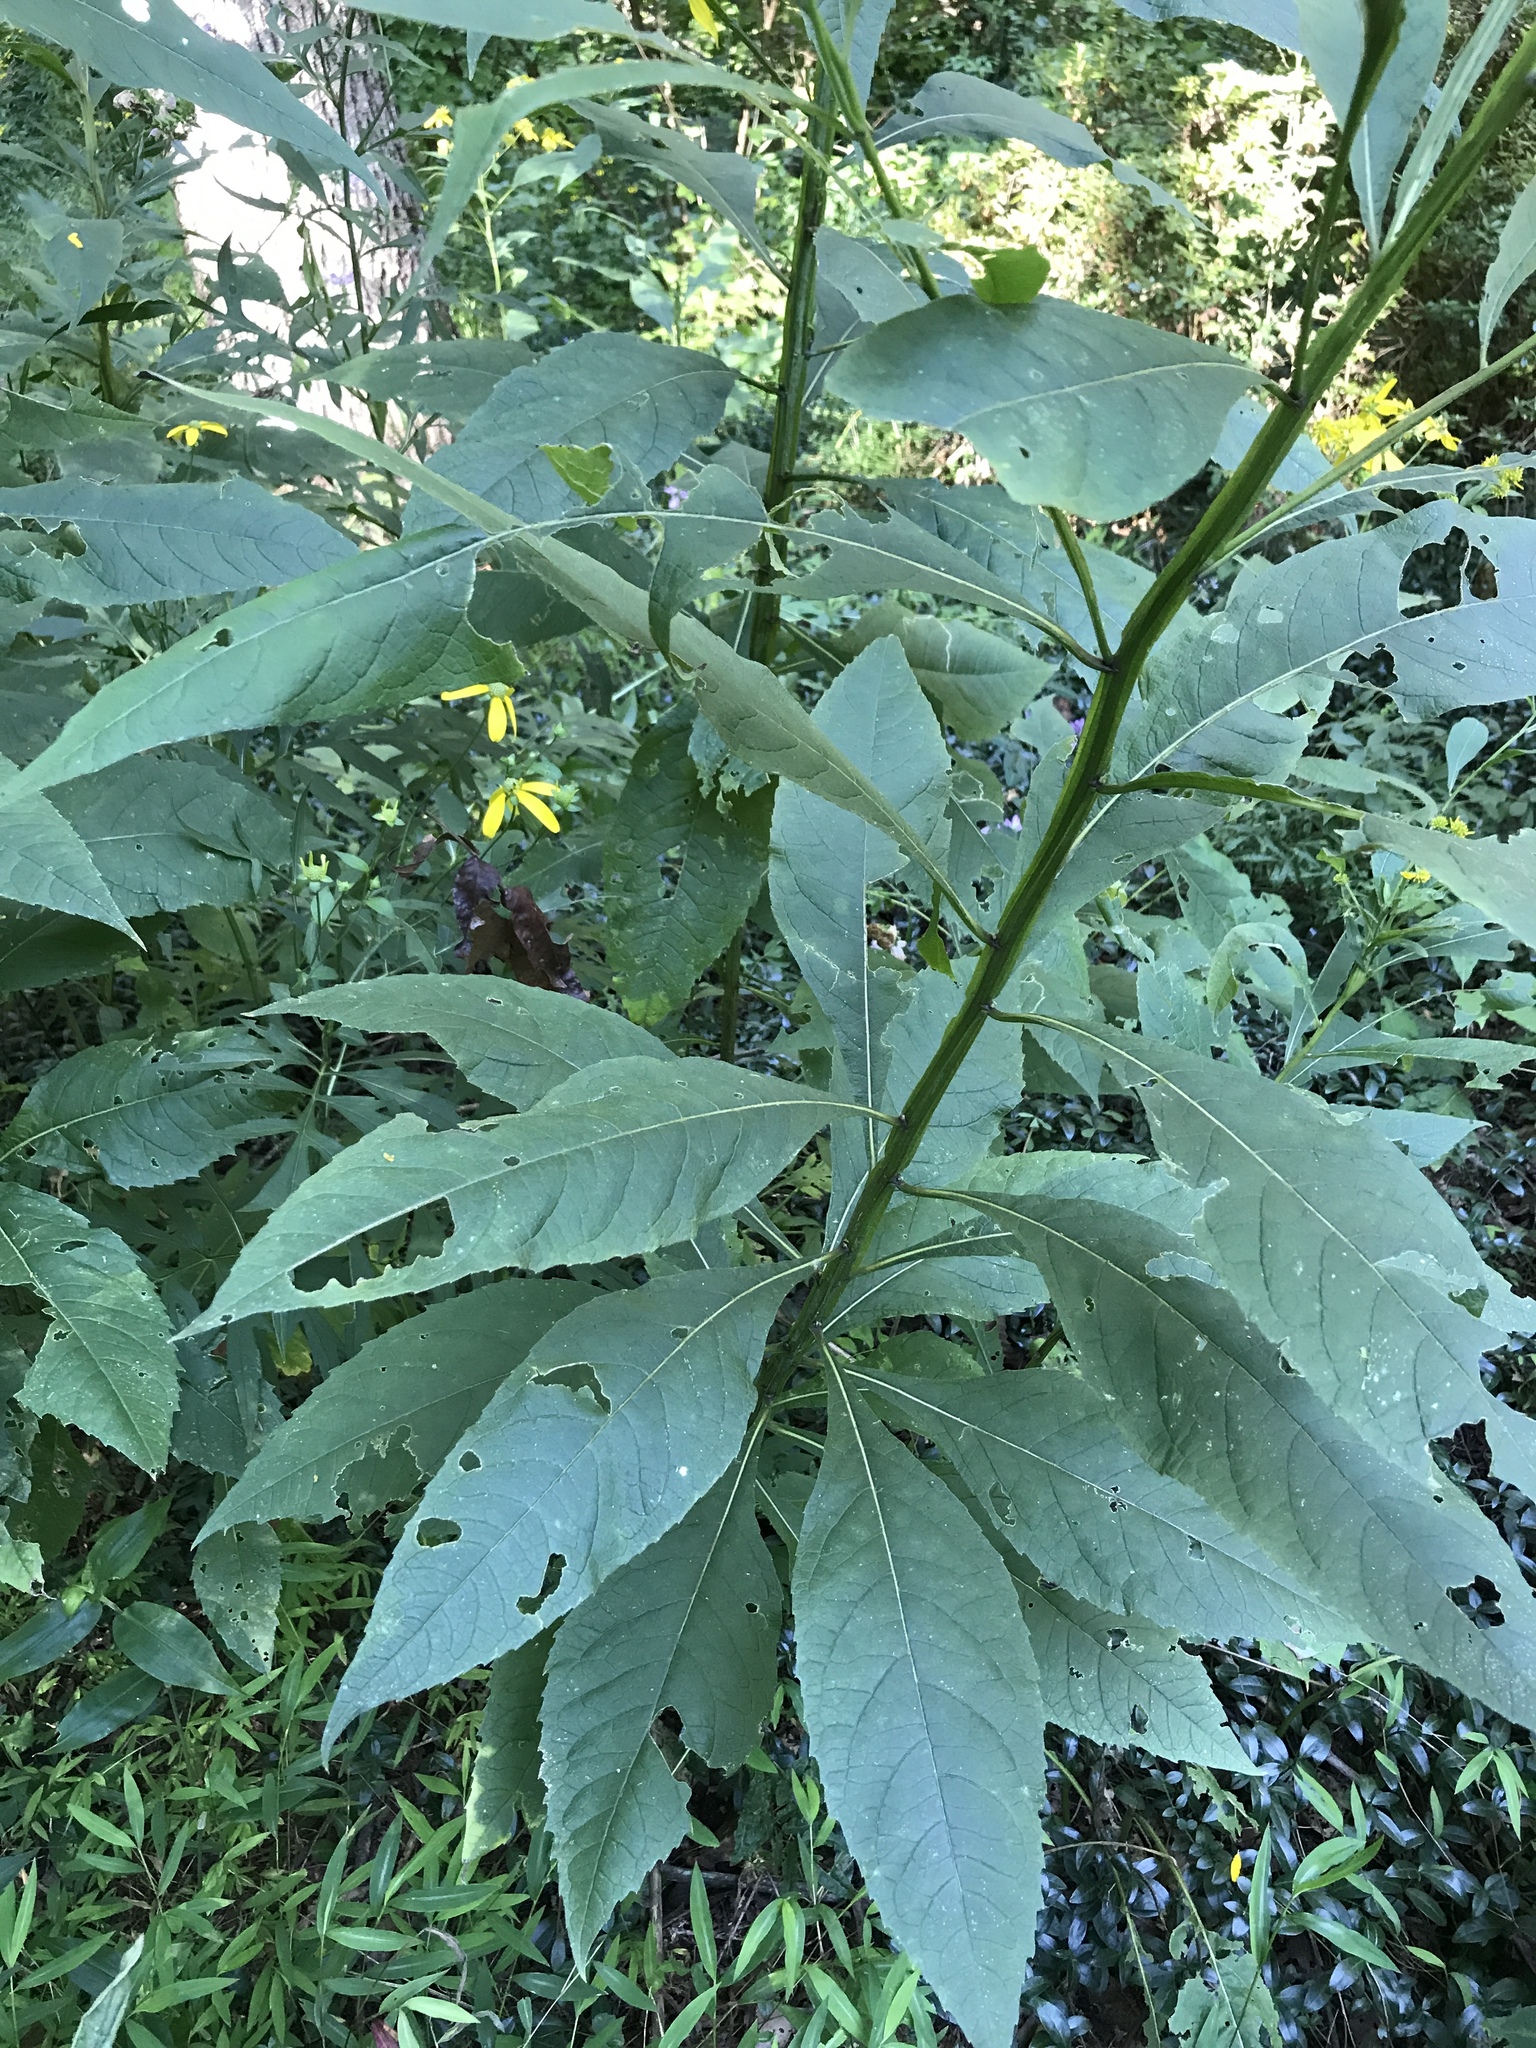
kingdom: Plantae
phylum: Tracheophyta
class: Magnoliopsida
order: Asterales
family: Asteraceae
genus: Verbesina
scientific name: Verbesina alternifolia
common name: Wingstem
